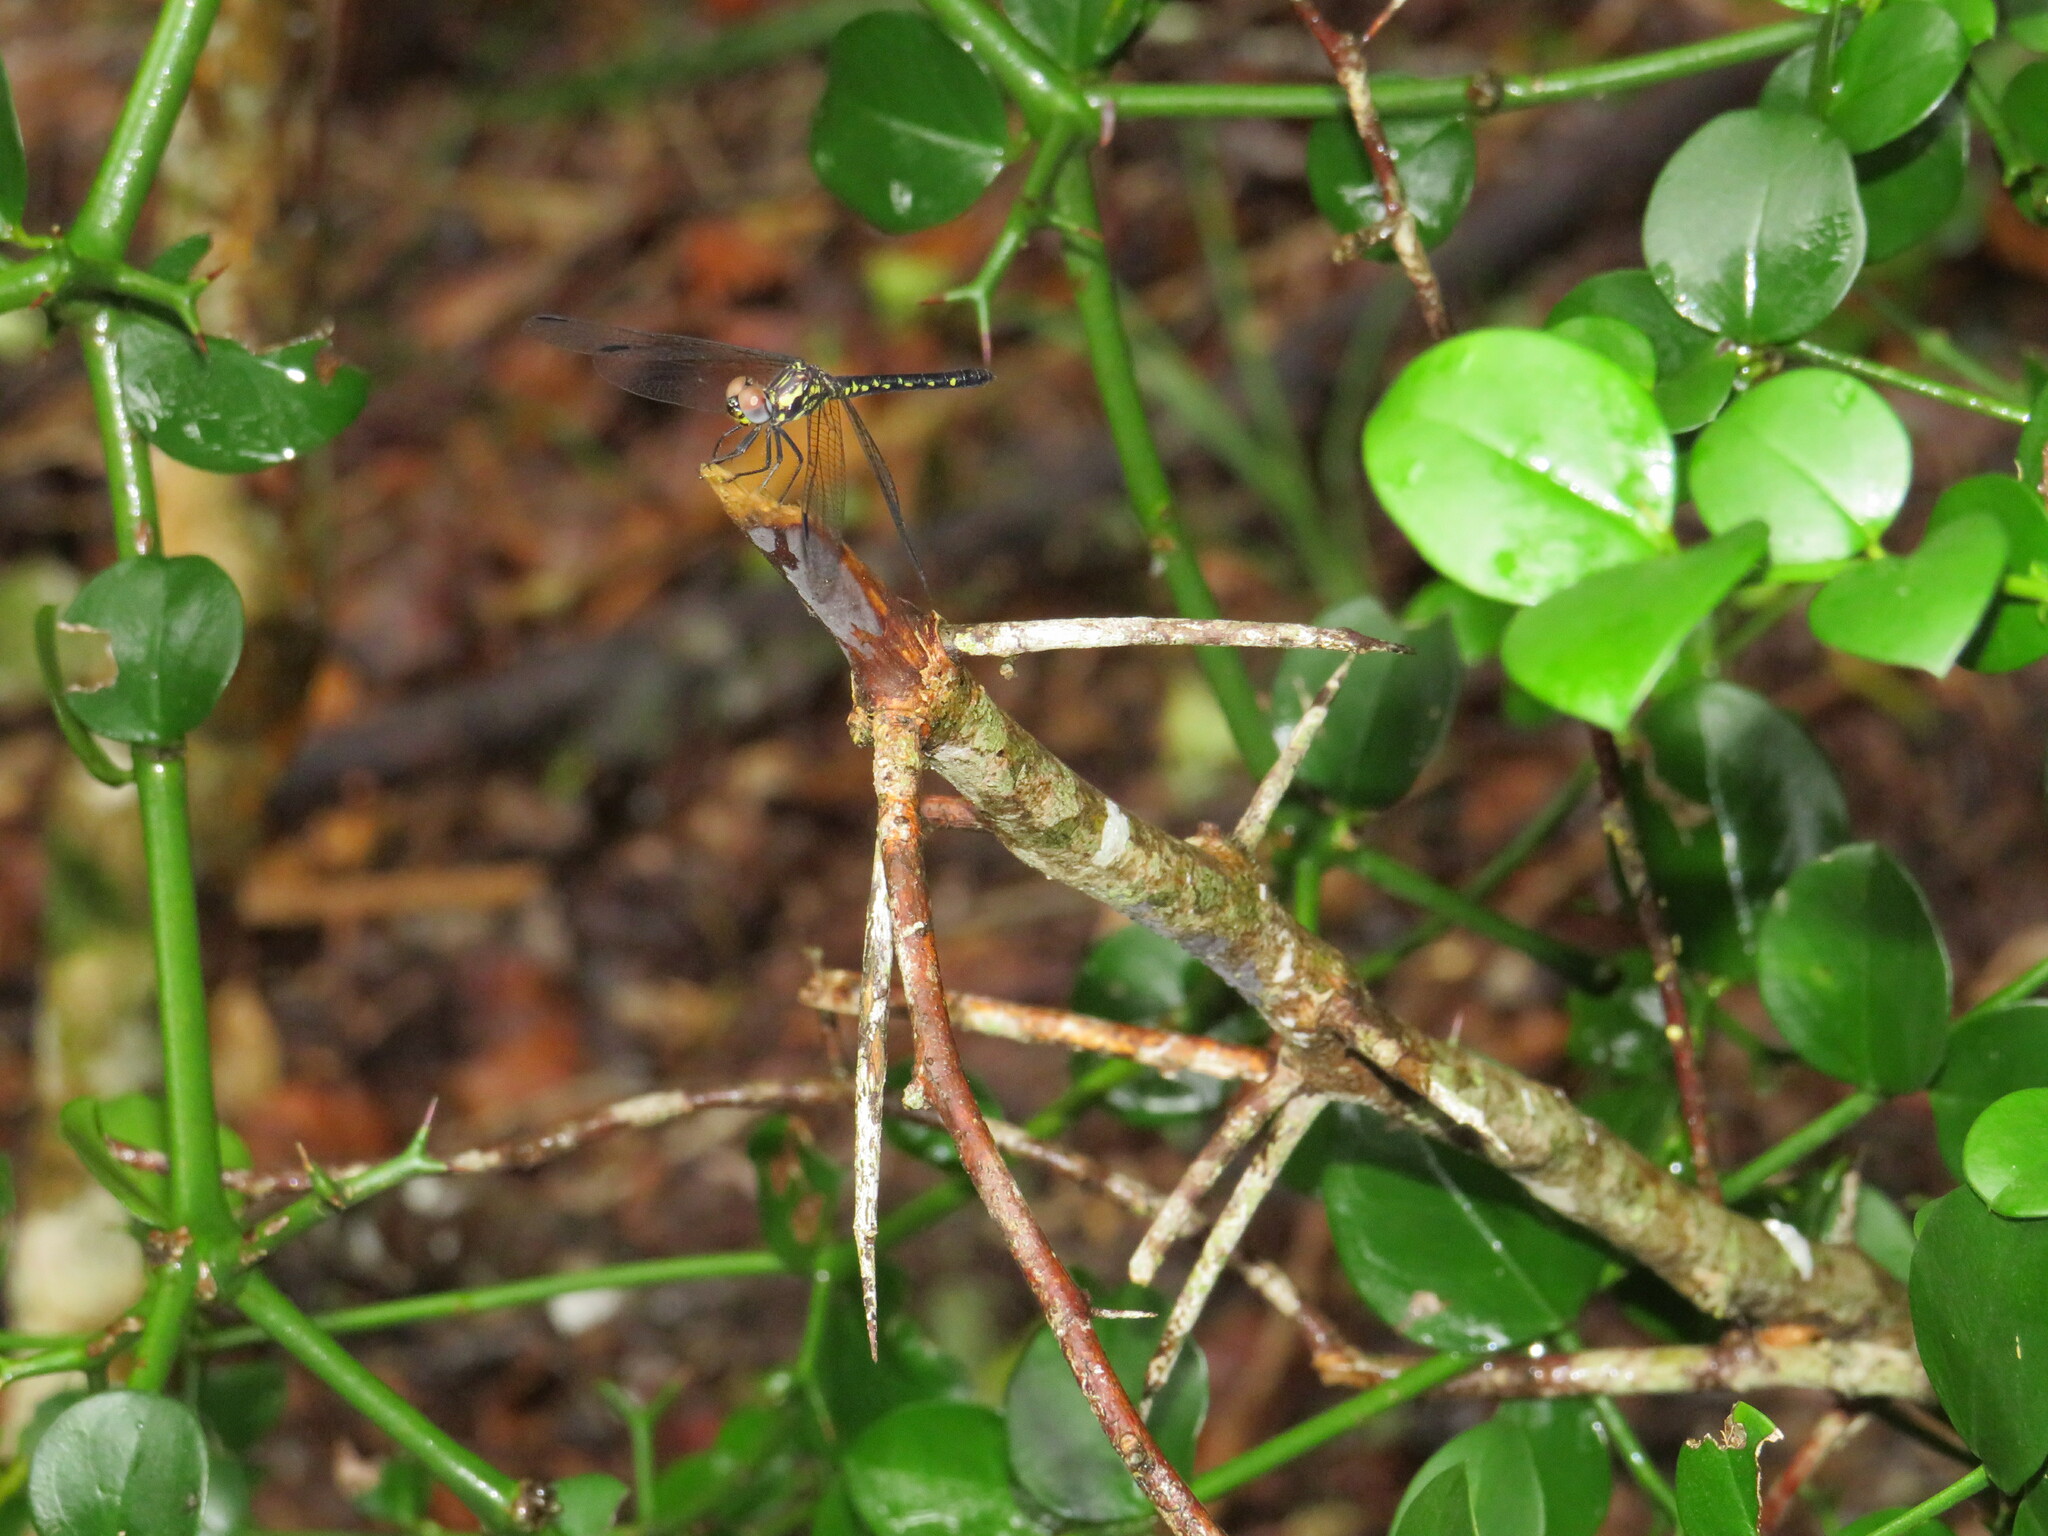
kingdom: Animalia
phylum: Arthropoda
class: Insecta
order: Odonata
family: Libellulidae
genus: Tetrathemis
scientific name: Tetrathemis polleni
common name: Black-splashed elf
